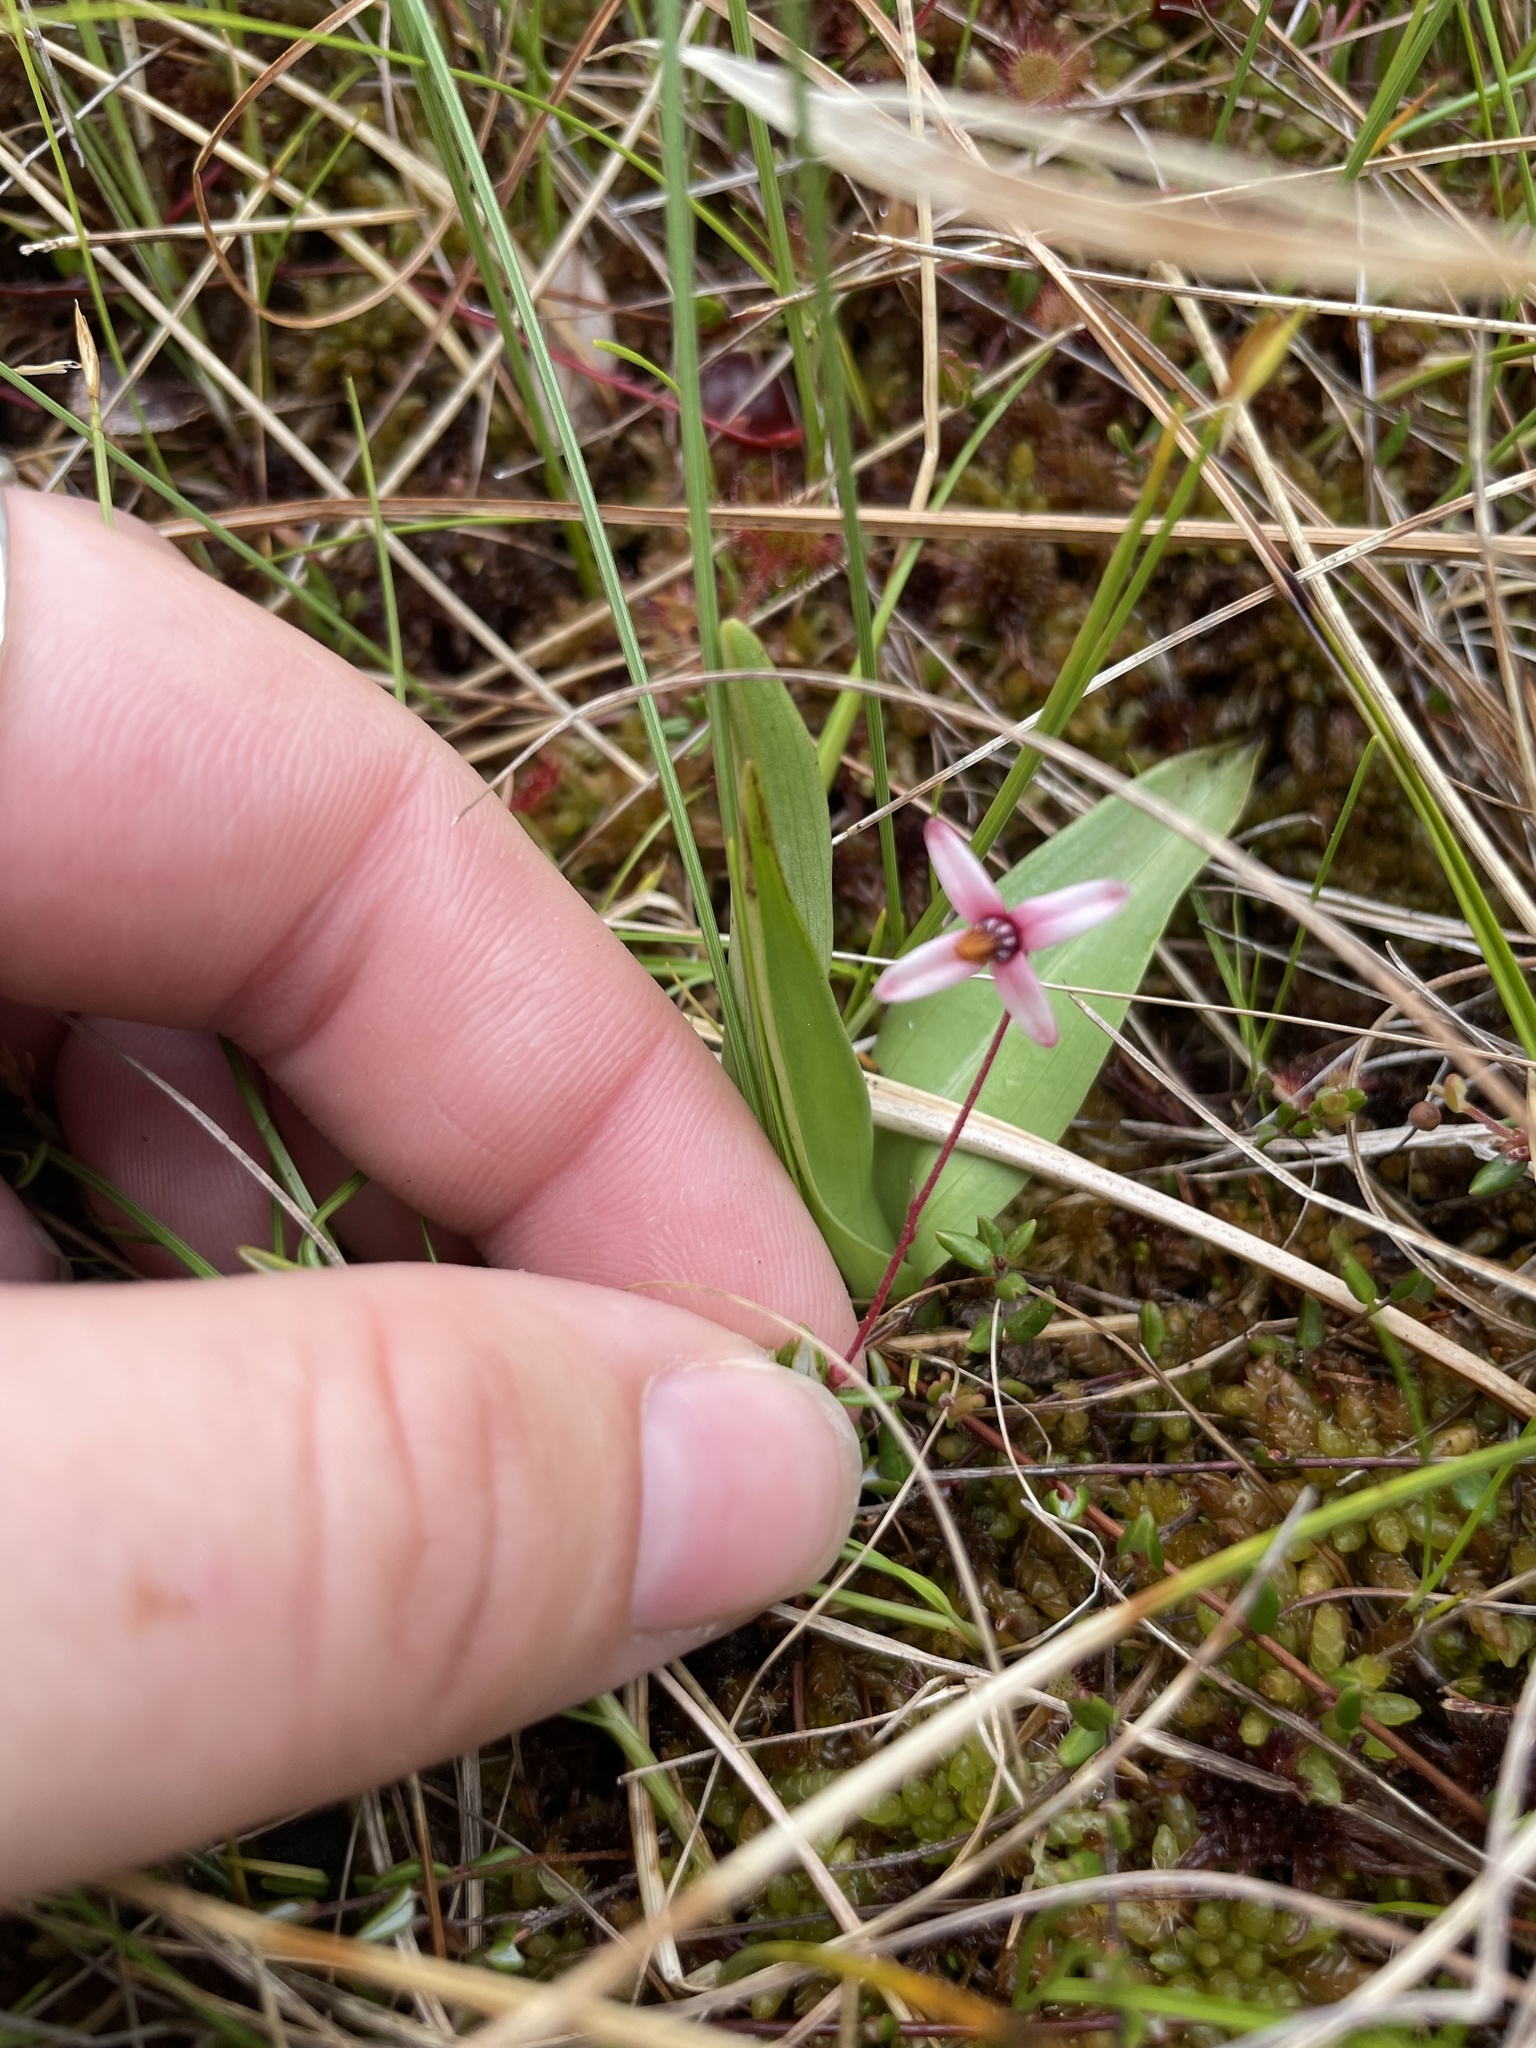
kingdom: Plantae
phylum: Tracheophyta
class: Magnoliopsida
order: Ericales
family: Ericaceae
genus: Vaccinium
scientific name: Vaccinium oxycoccos
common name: Cranberry
